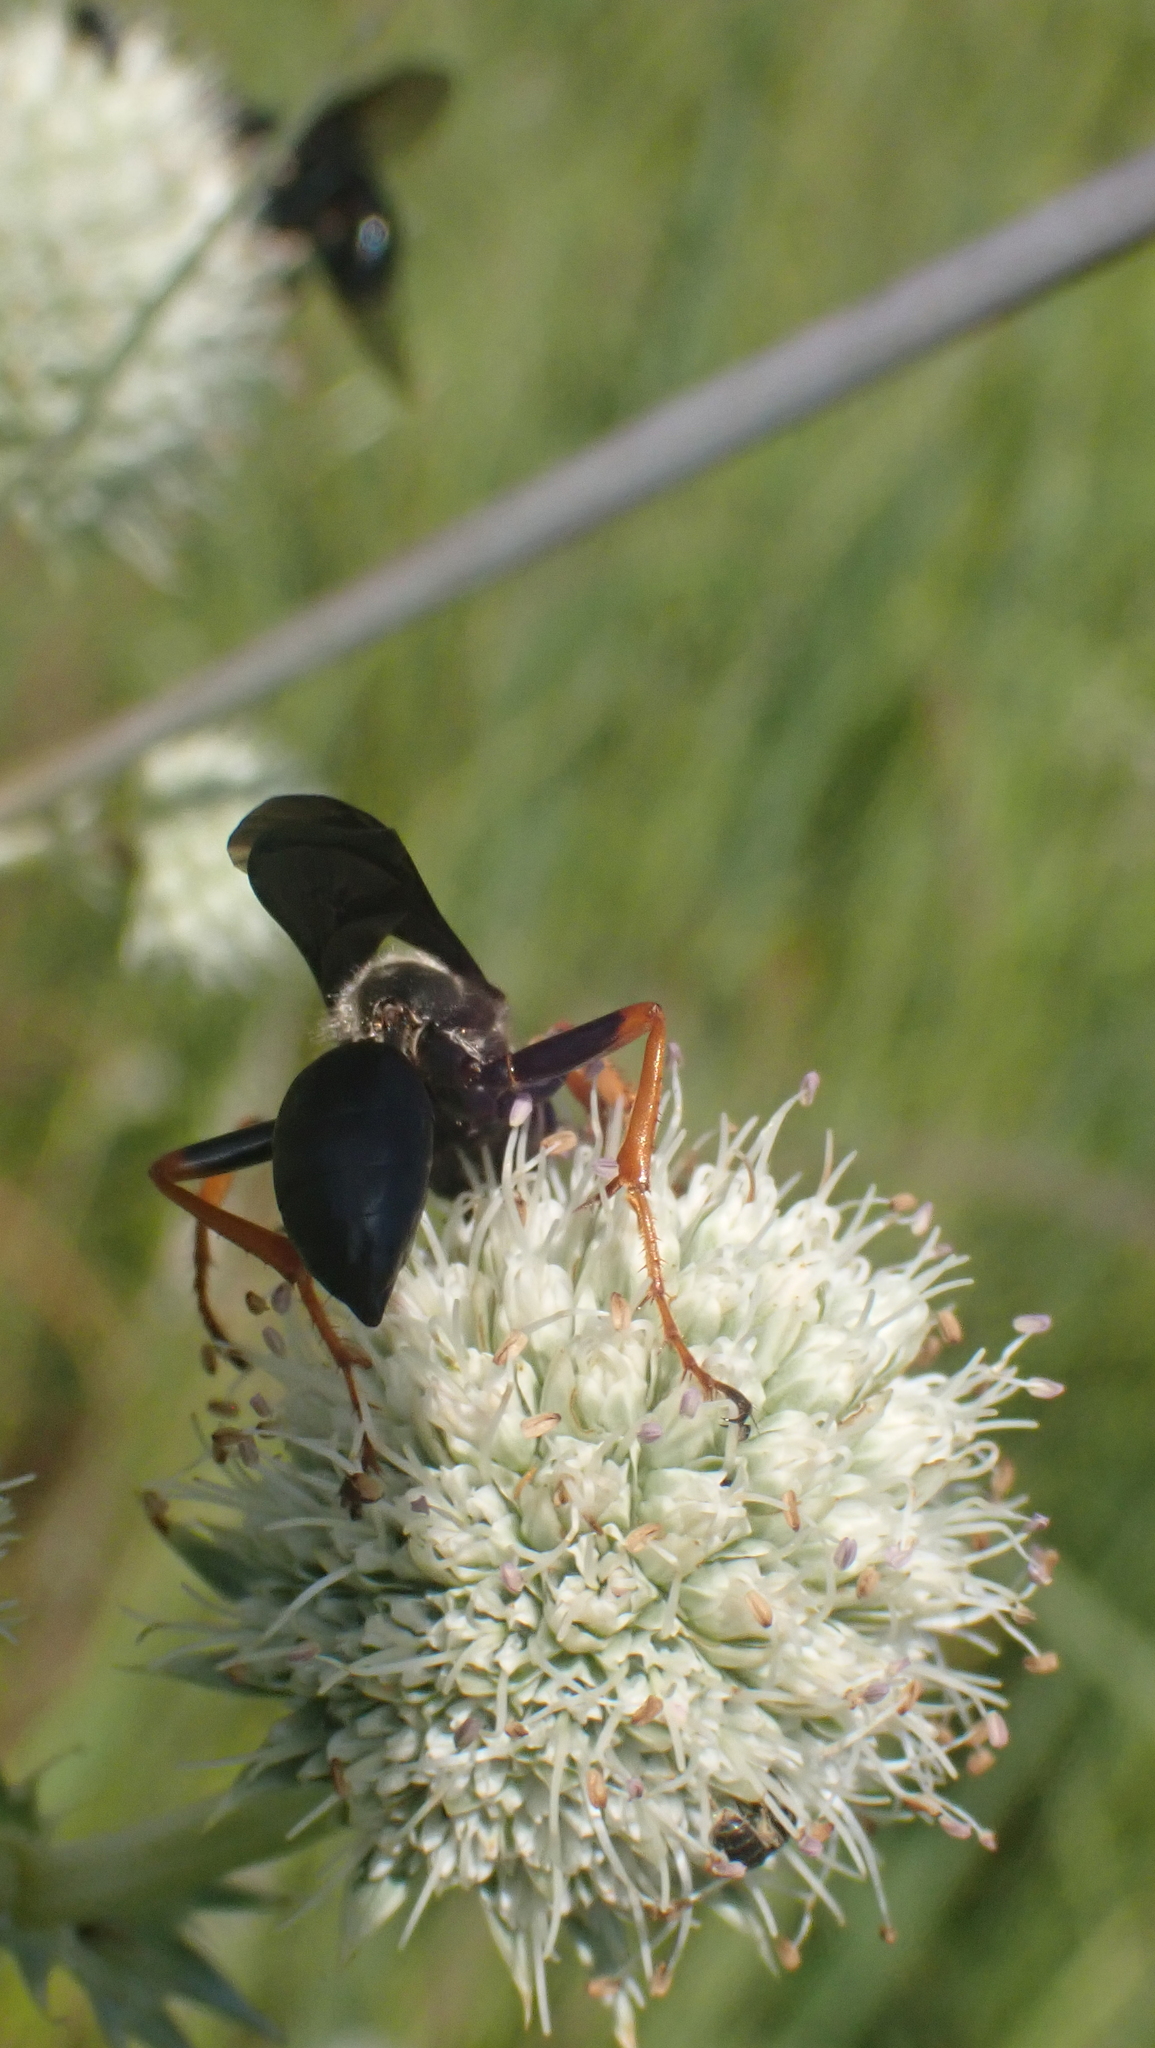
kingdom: Animalia
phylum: Arthropoda
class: Insecta
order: Hymenoptera
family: Sphecidae
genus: Sphex
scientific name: Sphex nudus
